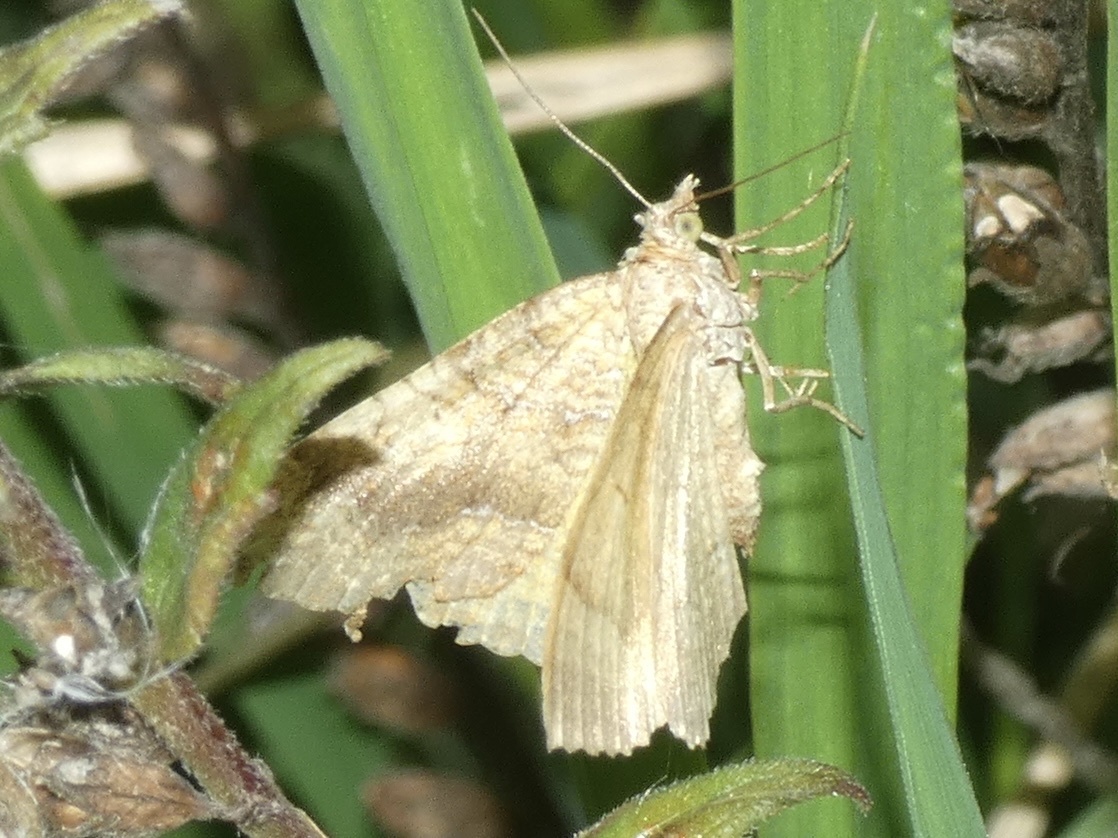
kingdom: Animalia
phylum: Arthropoda
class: Insecta
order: Lepidoptera
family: Geometridae
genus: Camptogramma
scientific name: Camptogramma bilineata
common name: Yellow shell
